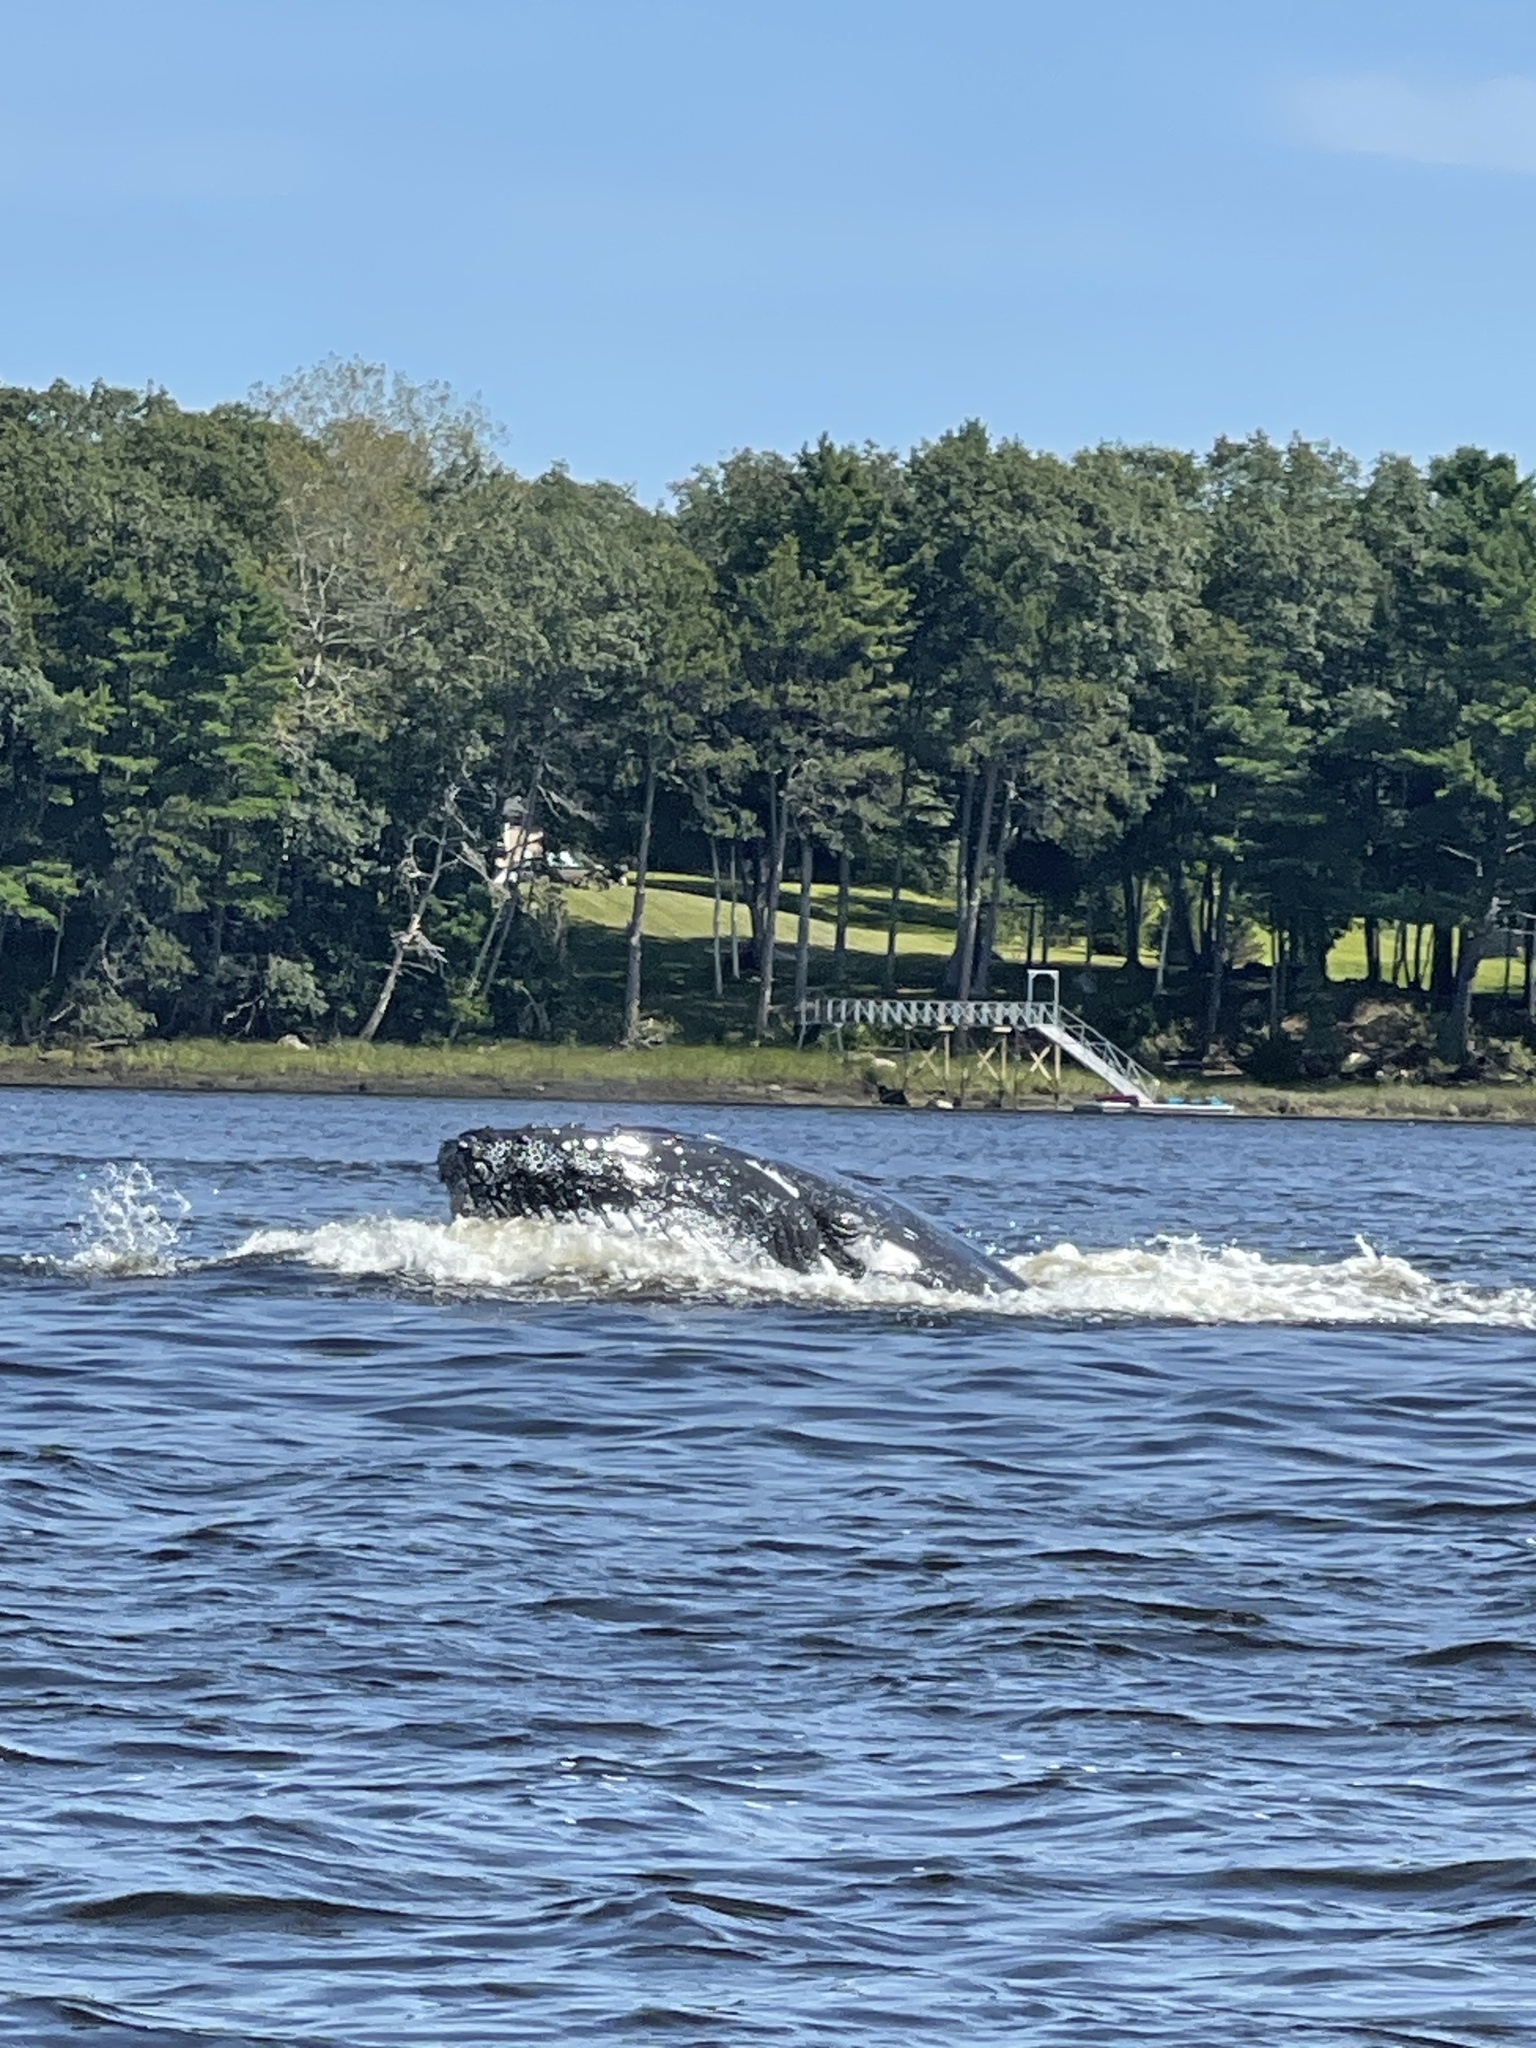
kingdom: Animalia
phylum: Chordata
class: Mammalia
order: Cetacea
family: Balaenopteridae
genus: Megaptera
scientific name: Megaptera novaeangliae
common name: Humpback whale
